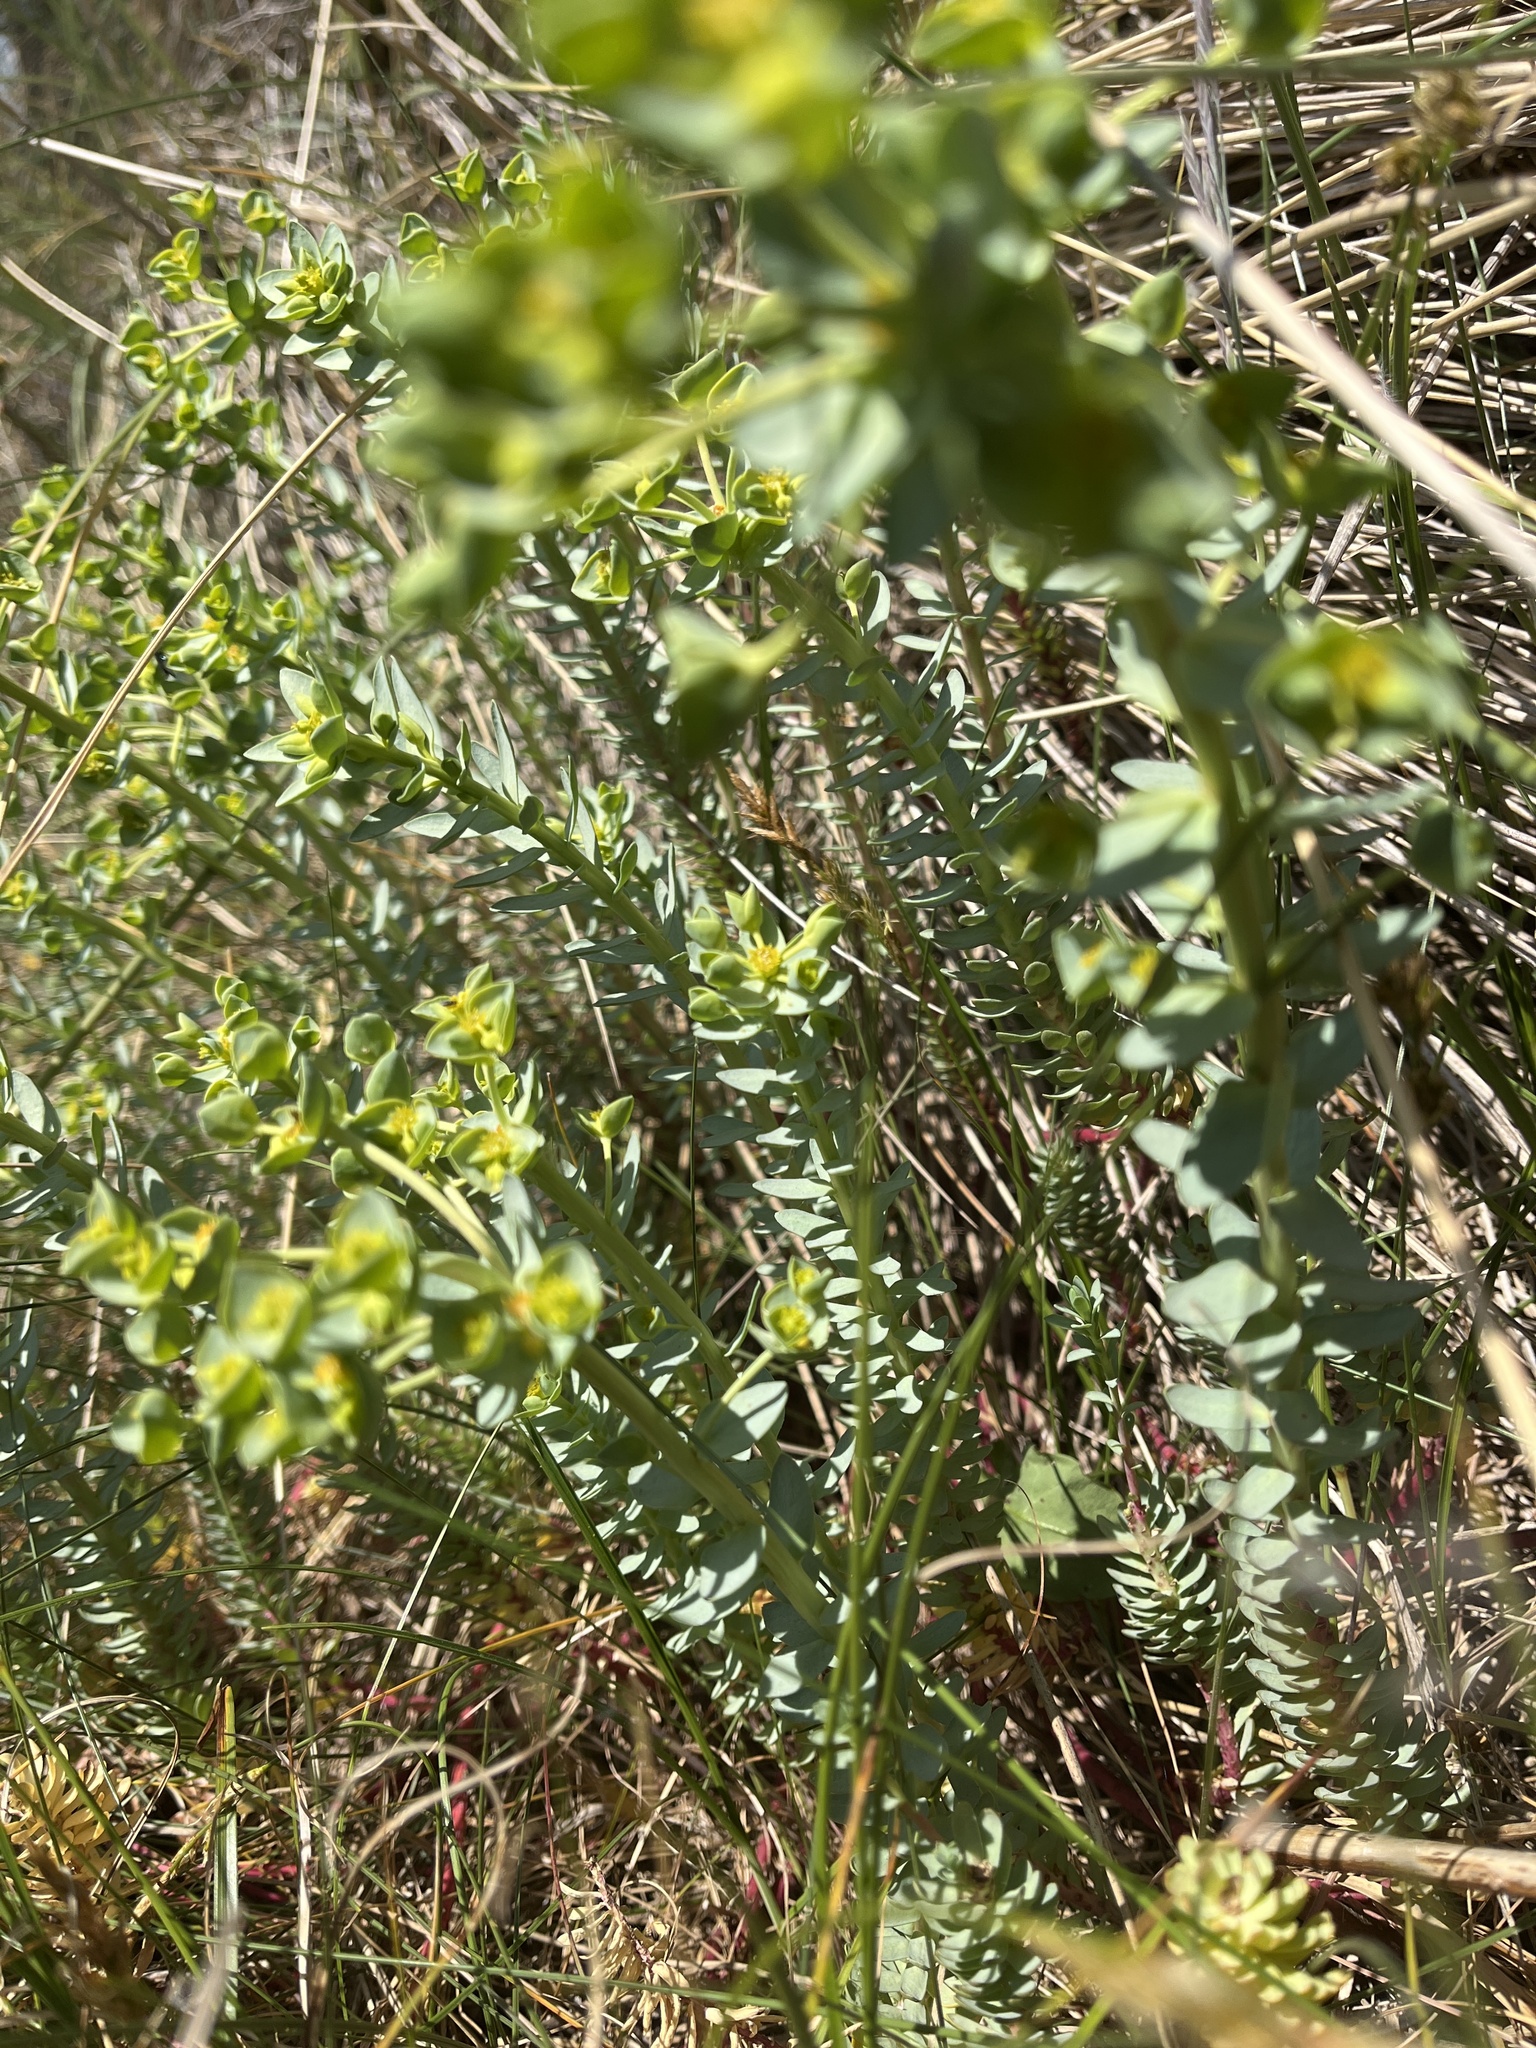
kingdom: Plantae
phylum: Tracheophyta
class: Magnoliopsida
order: Malpighiales
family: Euphorbiaceae
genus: Euphorbia
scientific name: Euphorbia paralias
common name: Sea spurge
